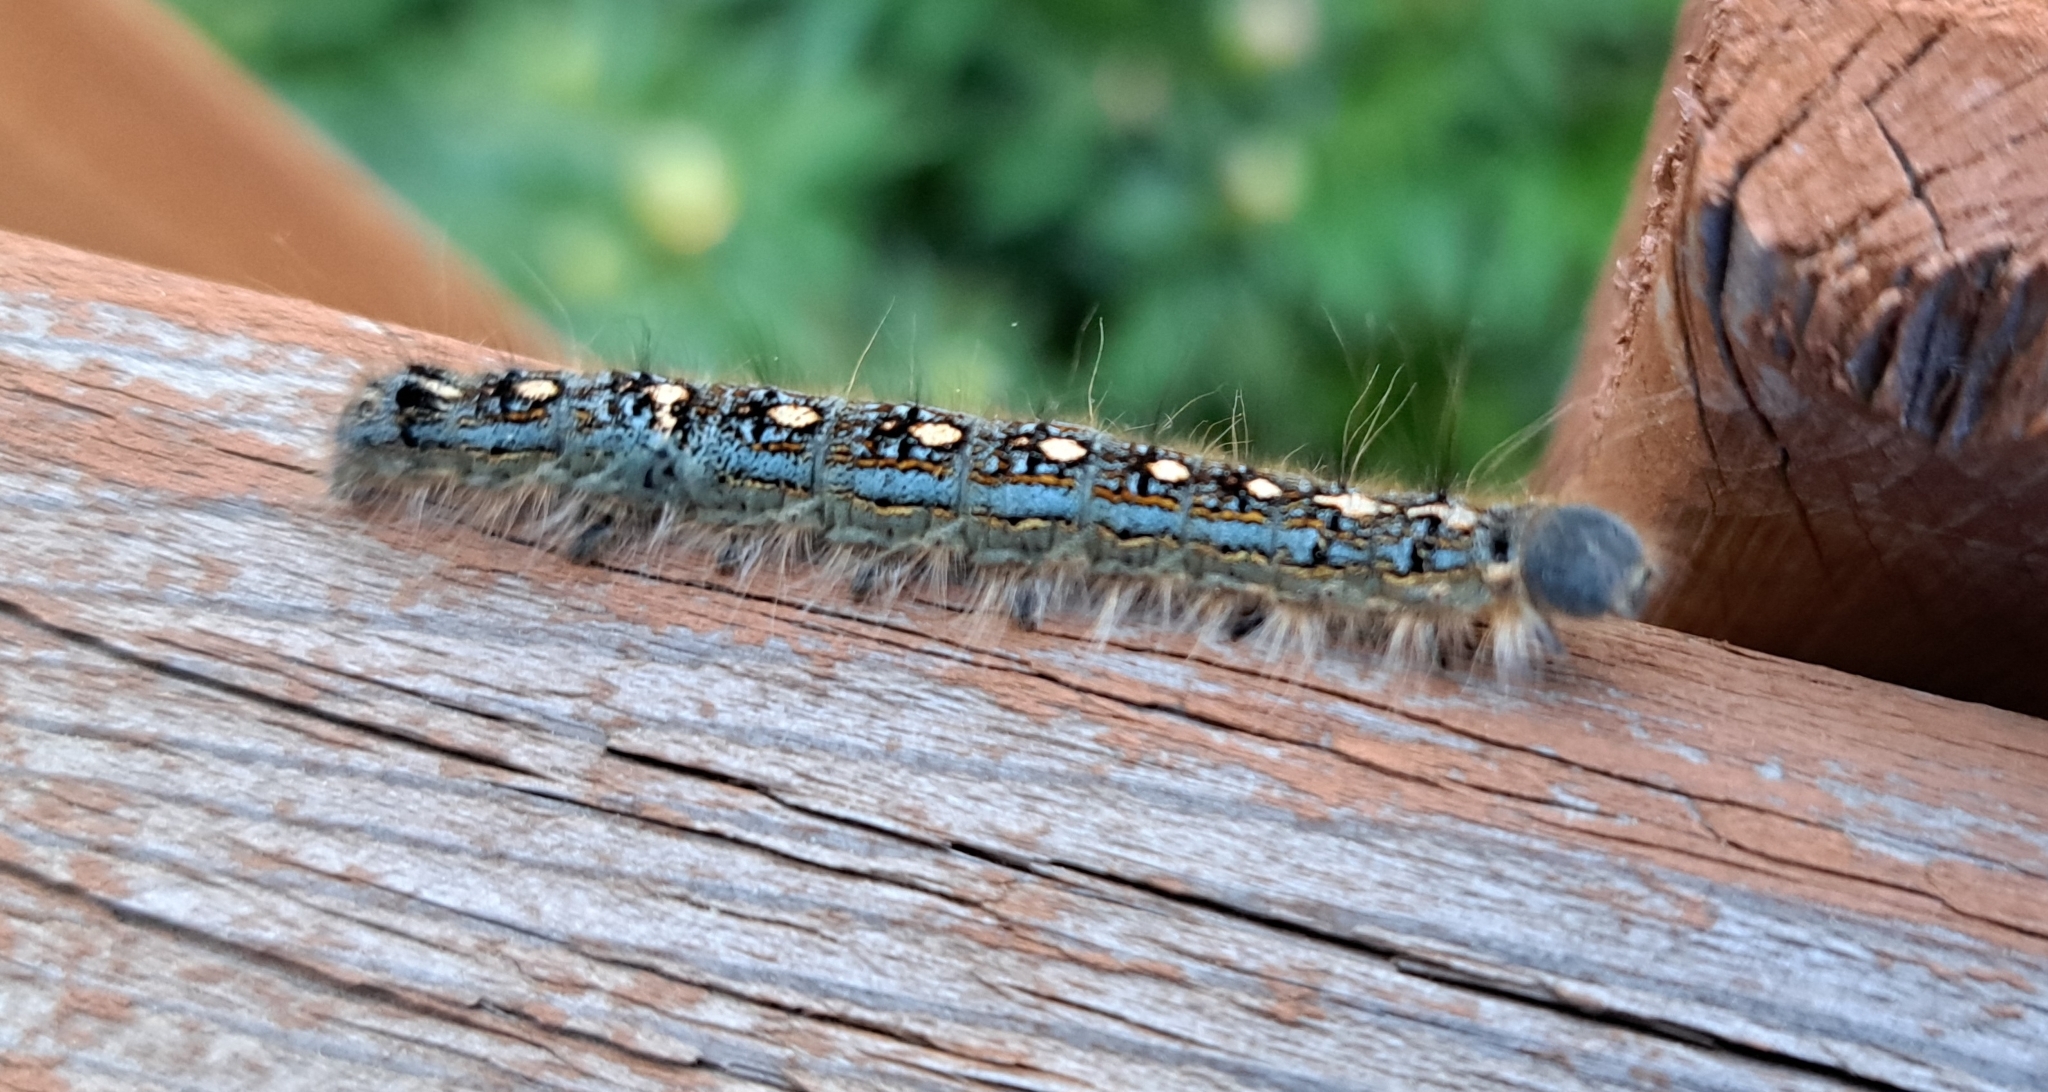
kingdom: Animalia
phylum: Arthropoda
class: Insecta
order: Lepidoptera
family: Lasiocampidae
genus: Malacosoma
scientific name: Malacosoma disstria
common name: Forest tent caterpillar
